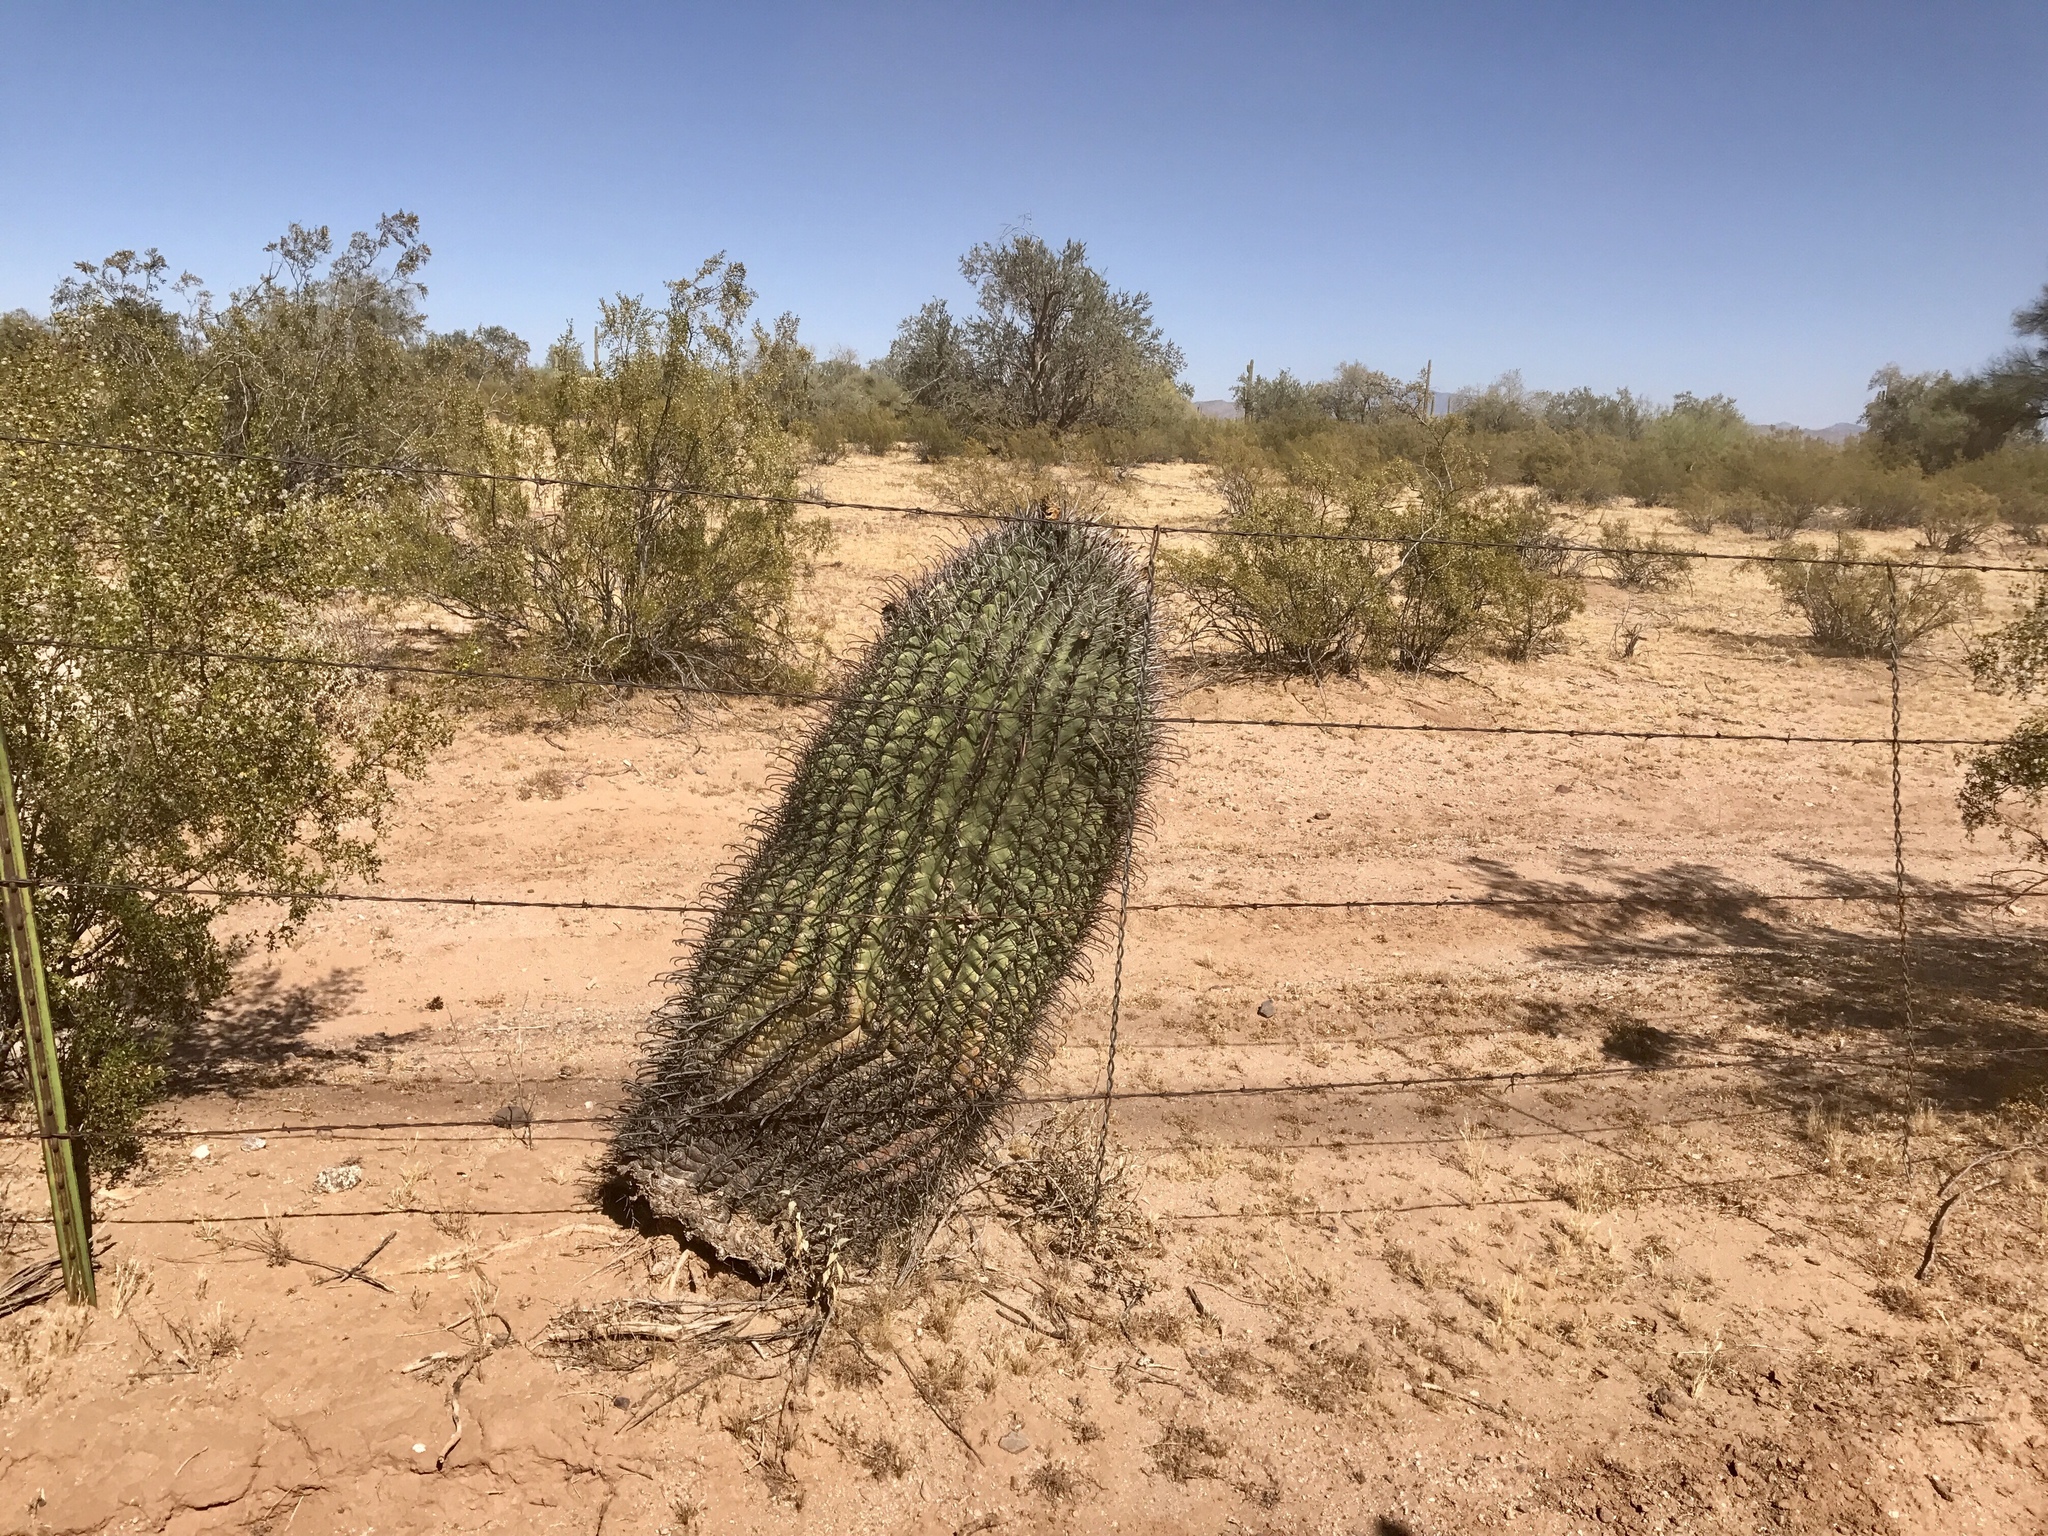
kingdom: Plantae
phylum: Tracheophyta
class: Magnoliopsida
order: Caryophyllales
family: Cactaceae
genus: Ferocactus
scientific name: Ferocactus wislizeni
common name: Candy barrel cactus
